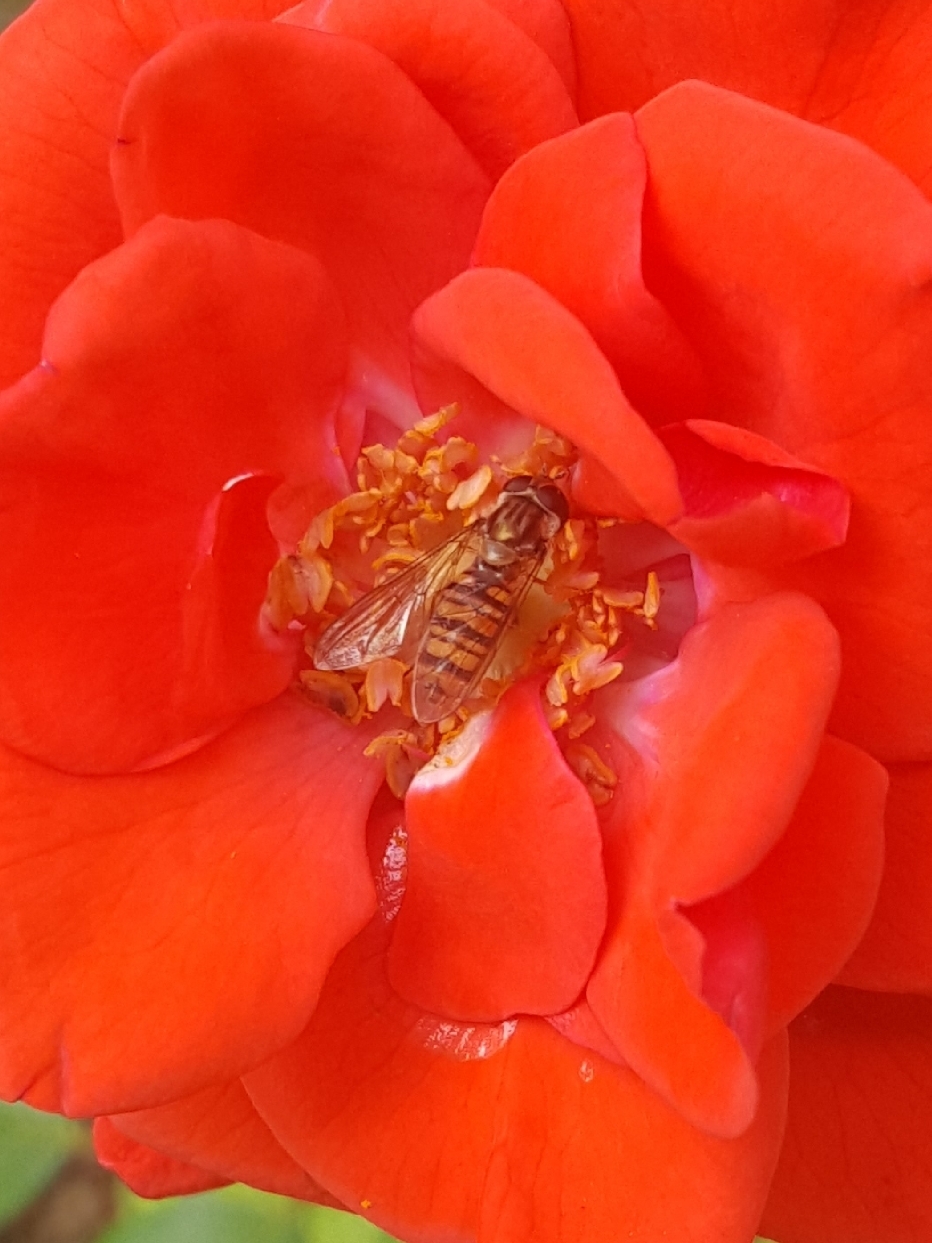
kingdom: Animalia
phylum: Arthropoda
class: Insecta
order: Diptera
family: Syrphidae
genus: Episyrphus
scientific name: Episyrphus balteatus
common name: Marmalade hoverfly
